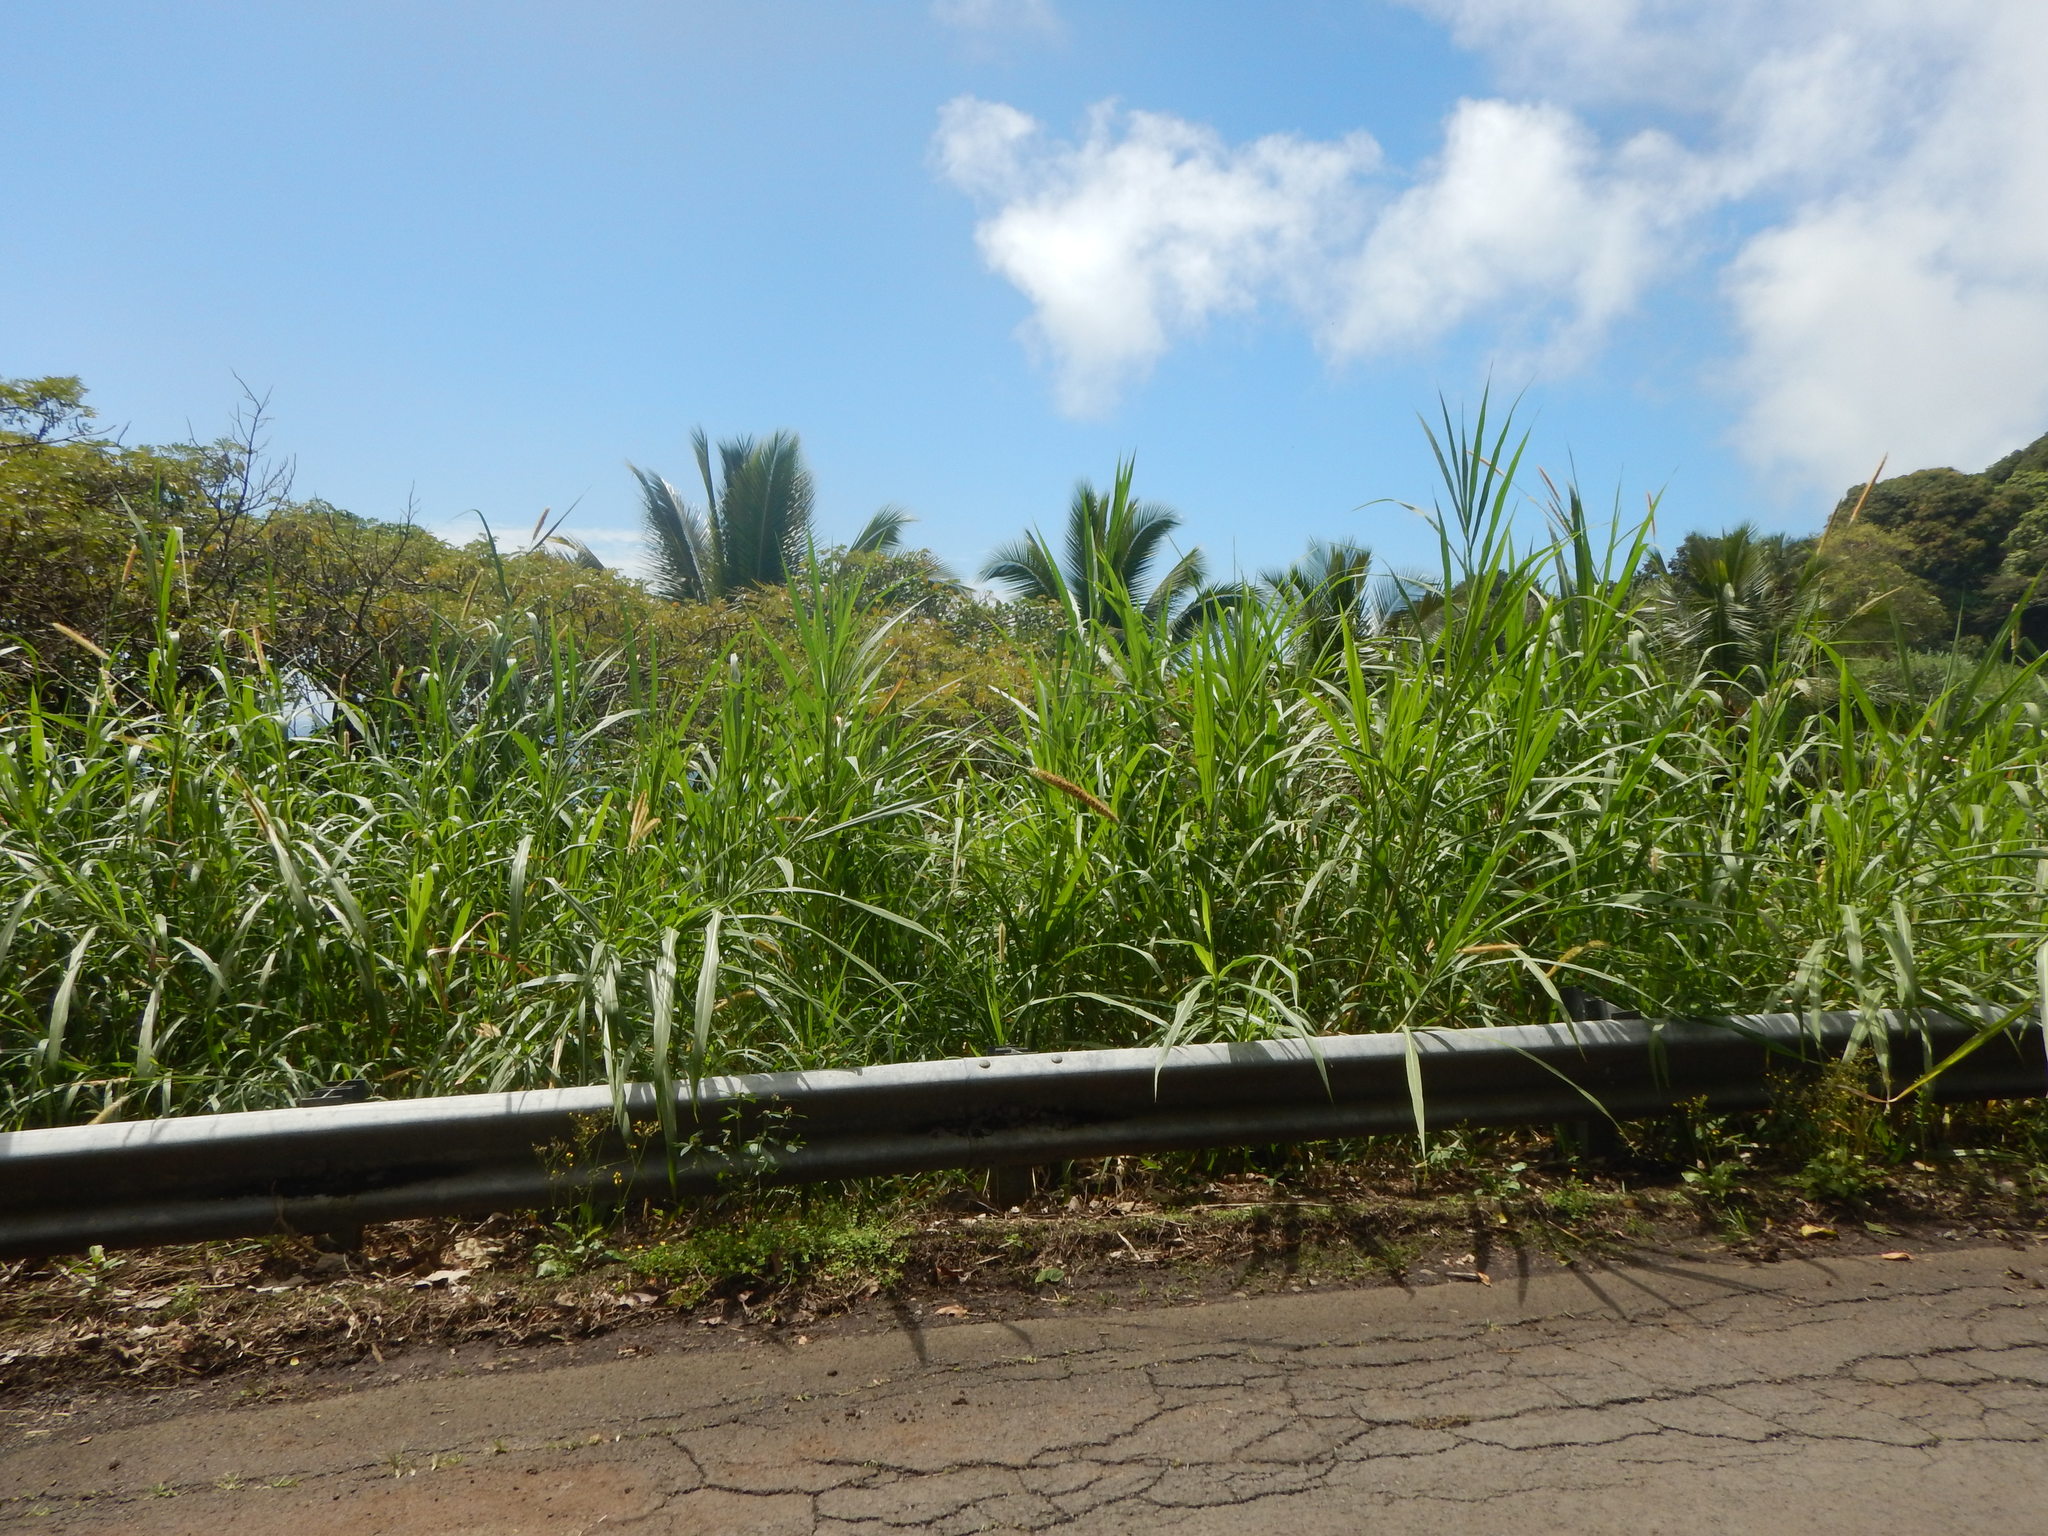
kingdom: Plantae
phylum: Tracheophyta
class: Liliopsida
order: Poales
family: Poaceae
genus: Cenchrus
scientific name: Cenchrus purpureus
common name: Elephant grass
